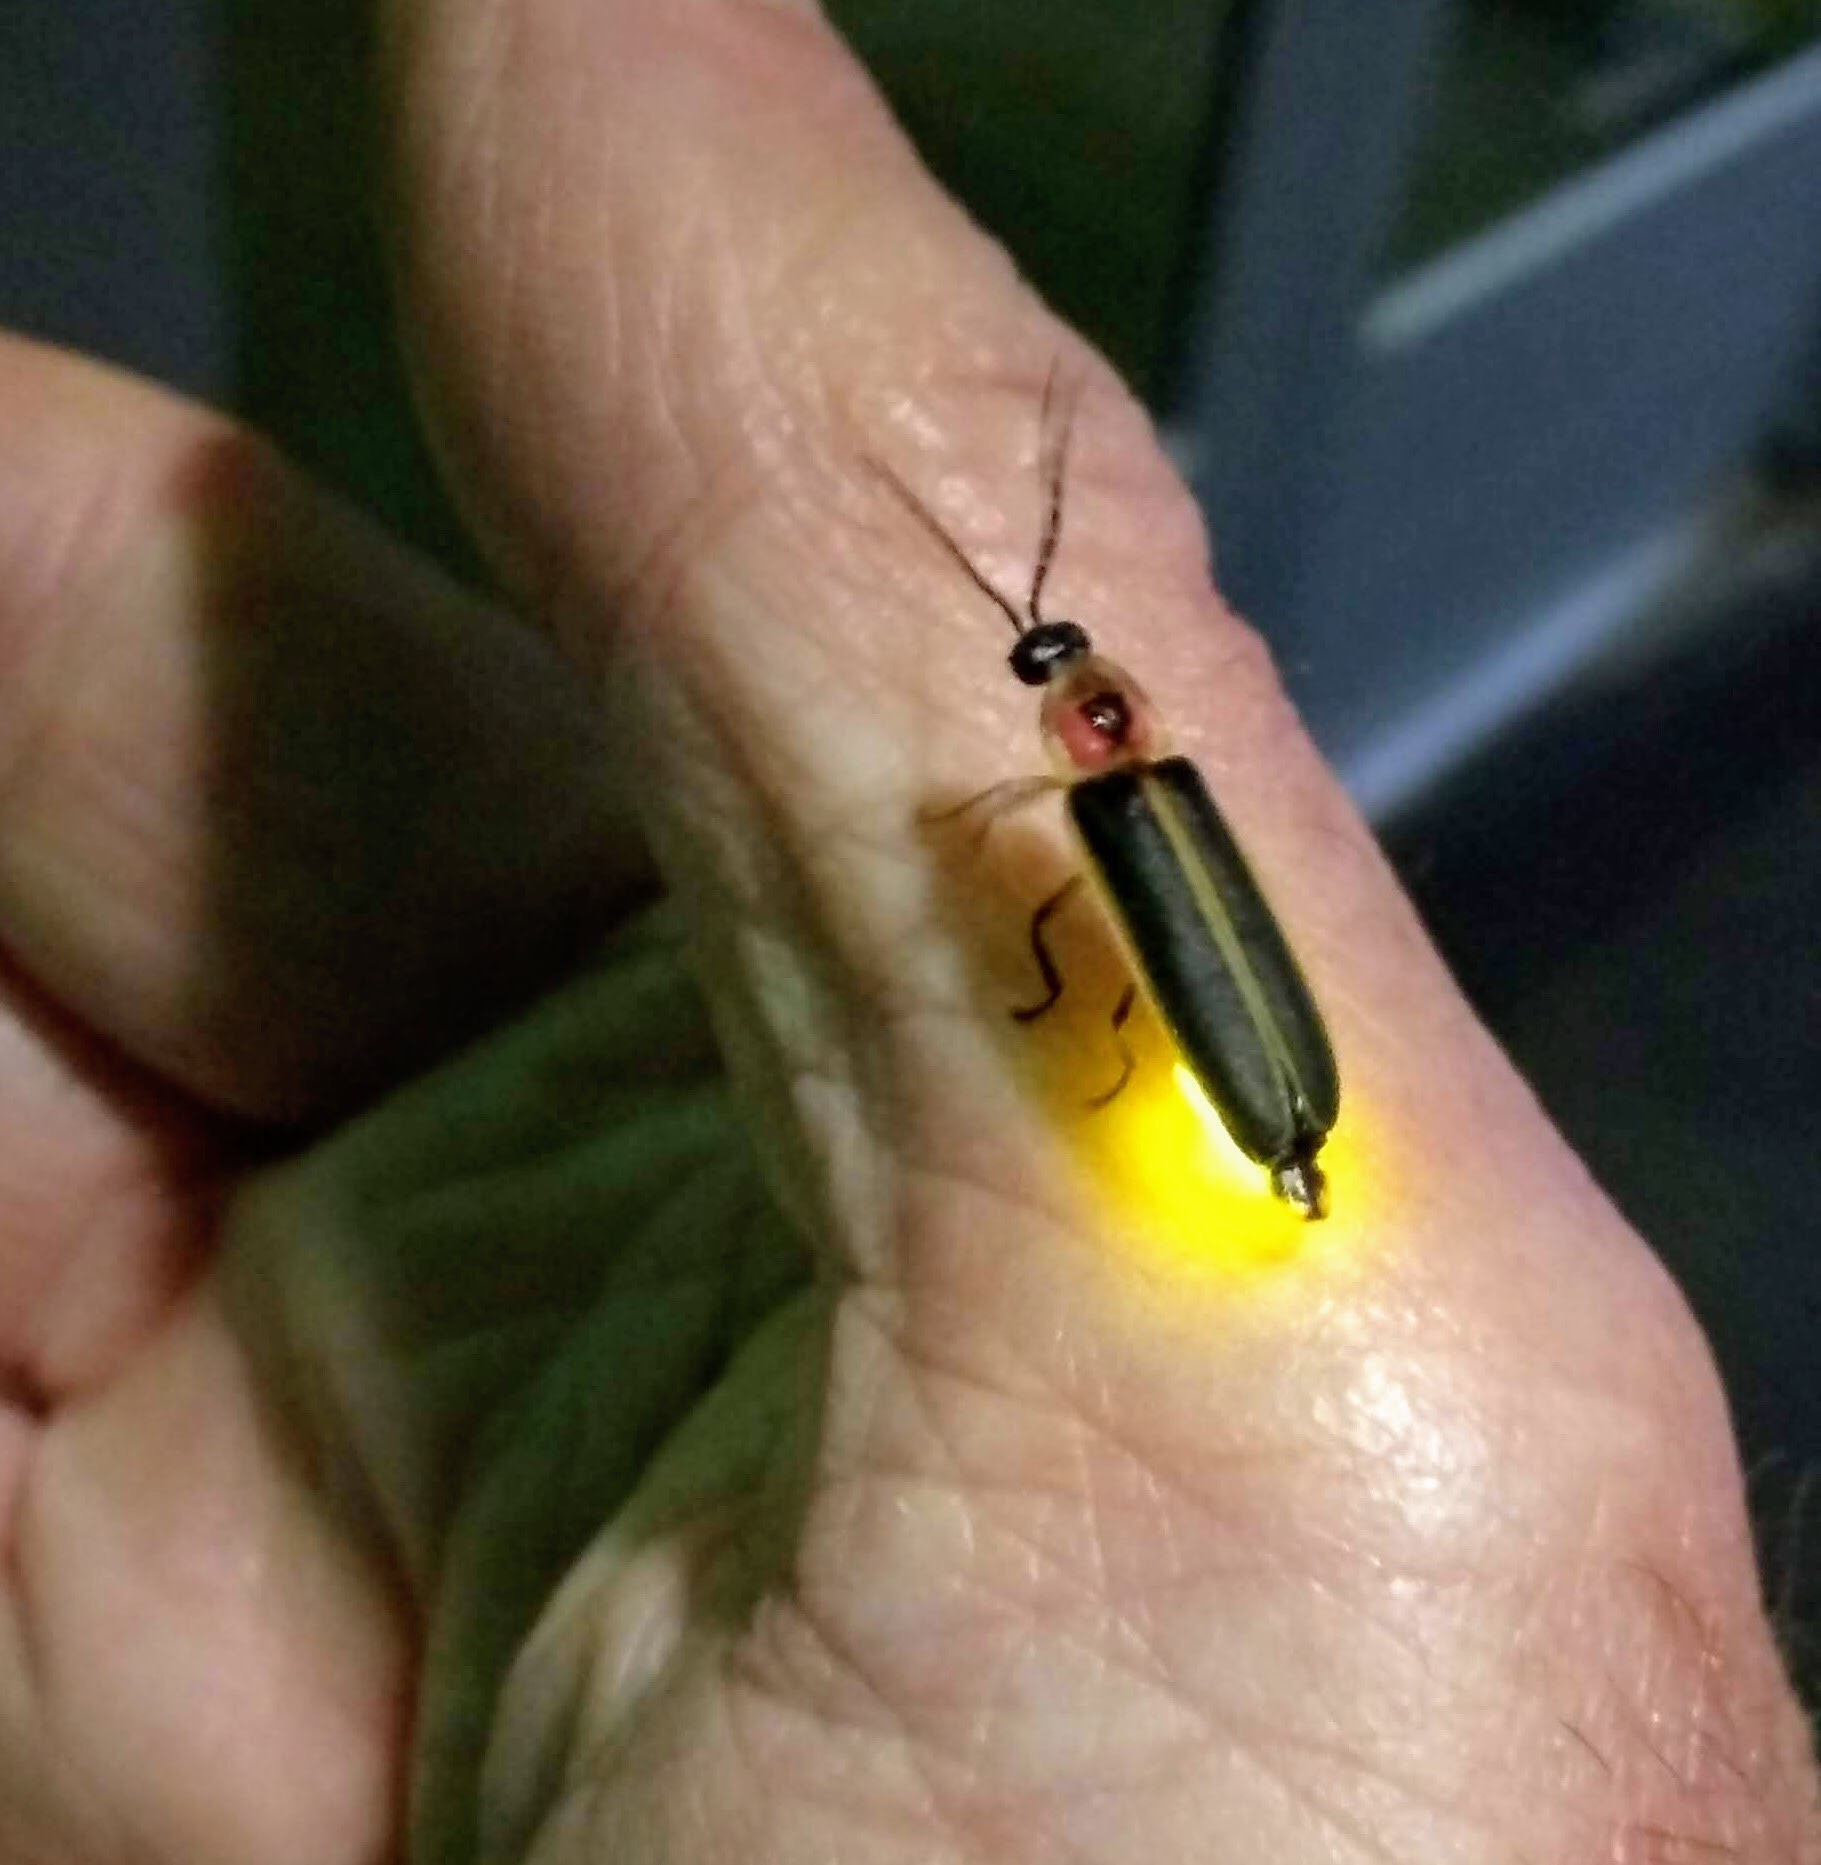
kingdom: Animalia
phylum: Arthropoda
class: Insecta
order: Coleoptera
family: Lampyridae
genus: Photinus
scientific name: Photinus pyralis
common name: Big dipper firefly
